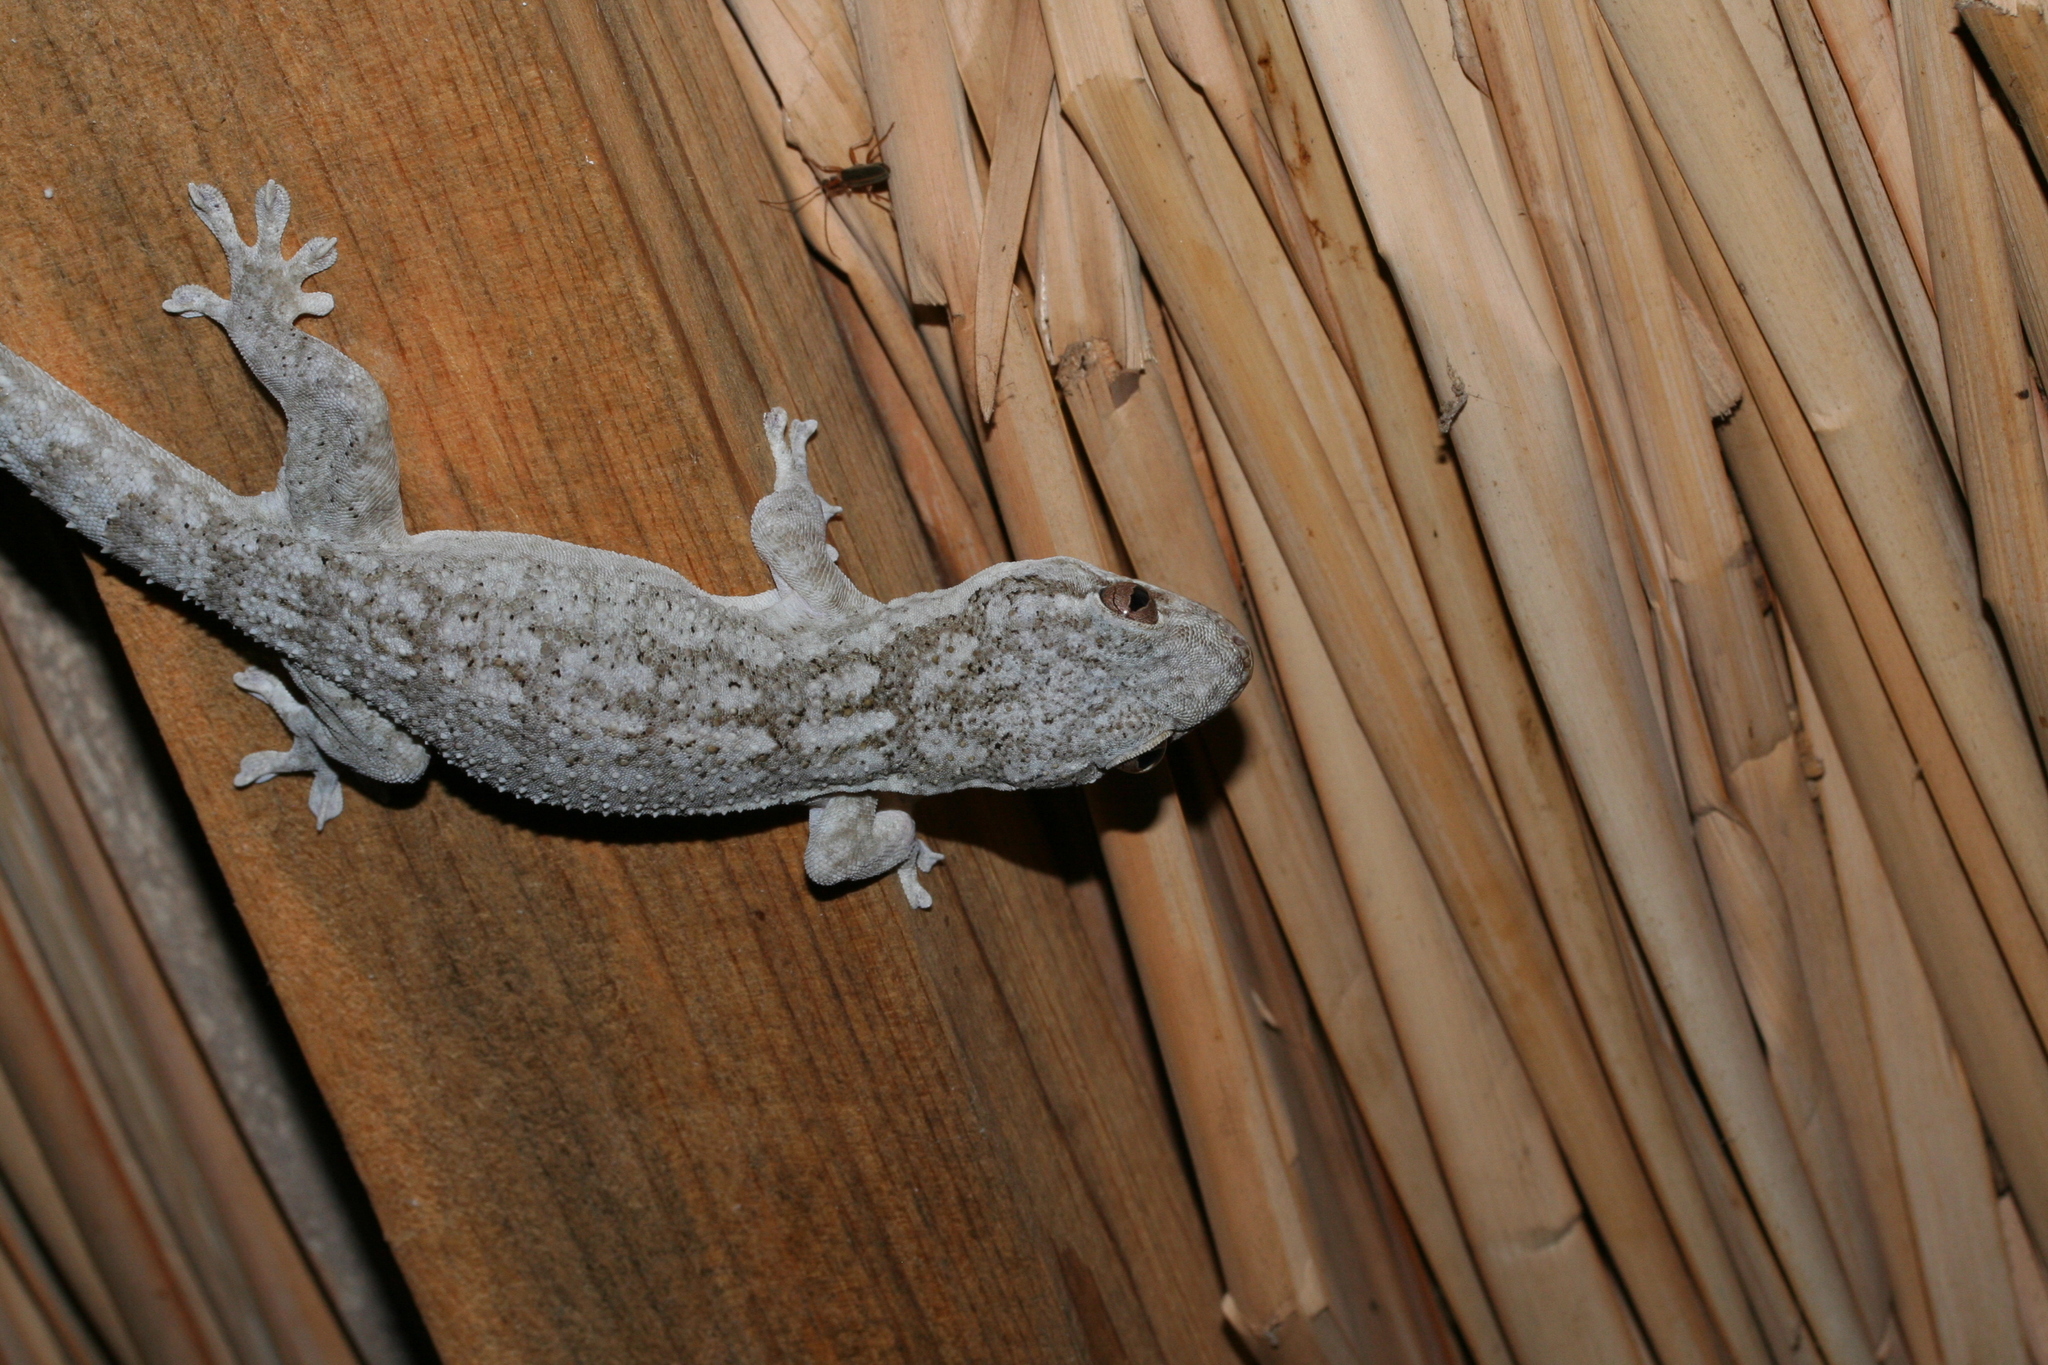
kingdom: Animalia
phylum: Chordata
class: Squamata
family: Gekkonidae
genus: Blaesodactylus
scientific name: Blaesodactylus sakalava
